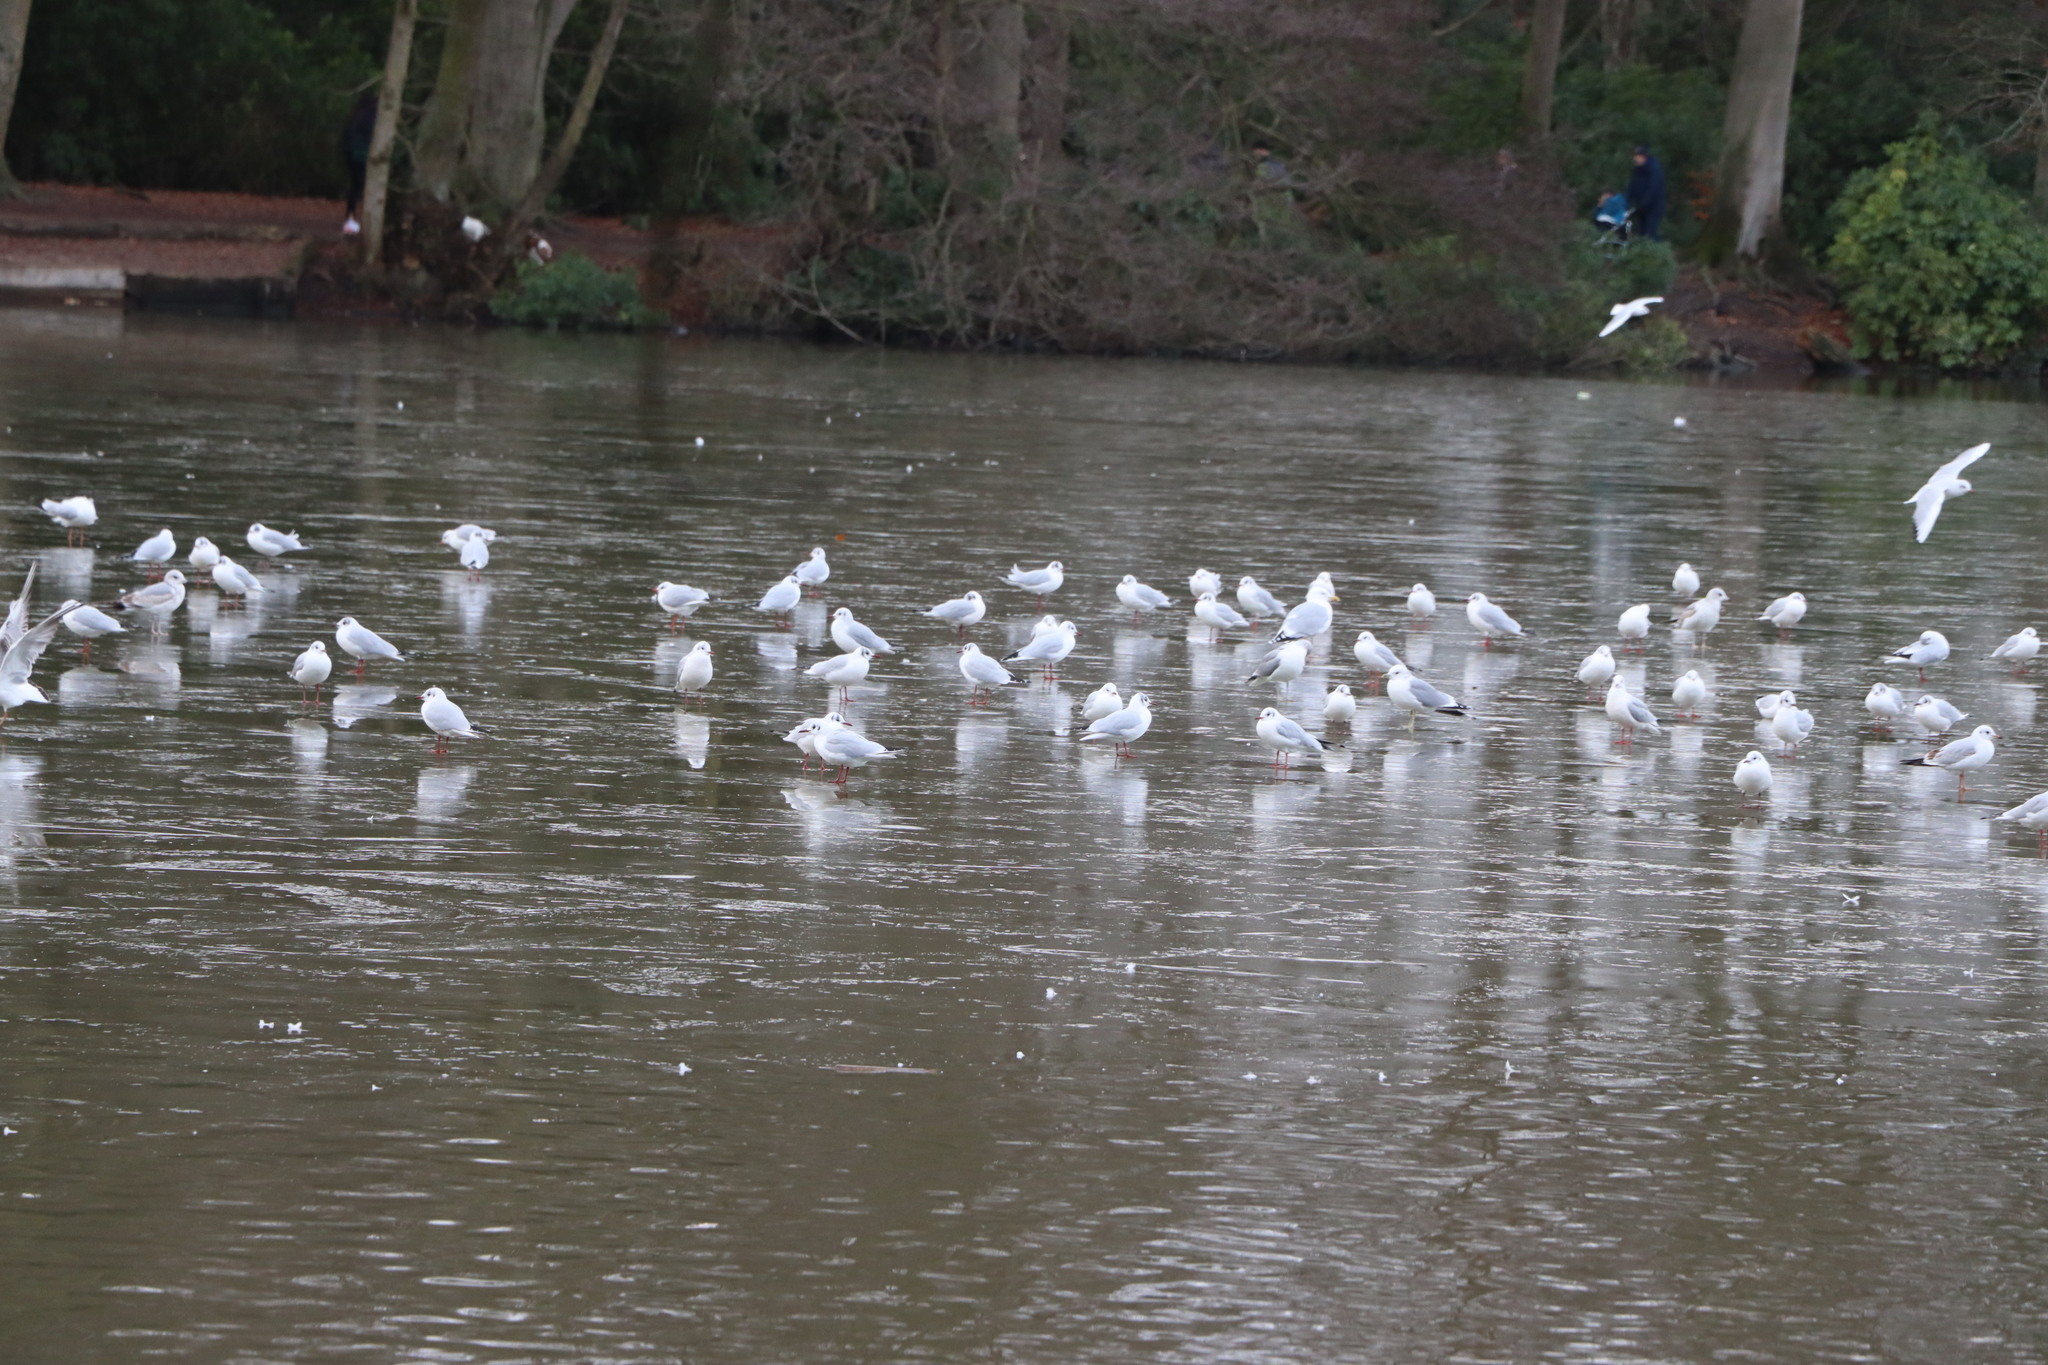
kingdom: Animalia
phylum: Chordata
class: Aves
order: Charadriiformes
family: Laridae
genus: Chroicocephalus
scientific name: Chroicocephalus ridibundus
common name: Black-headed gull
